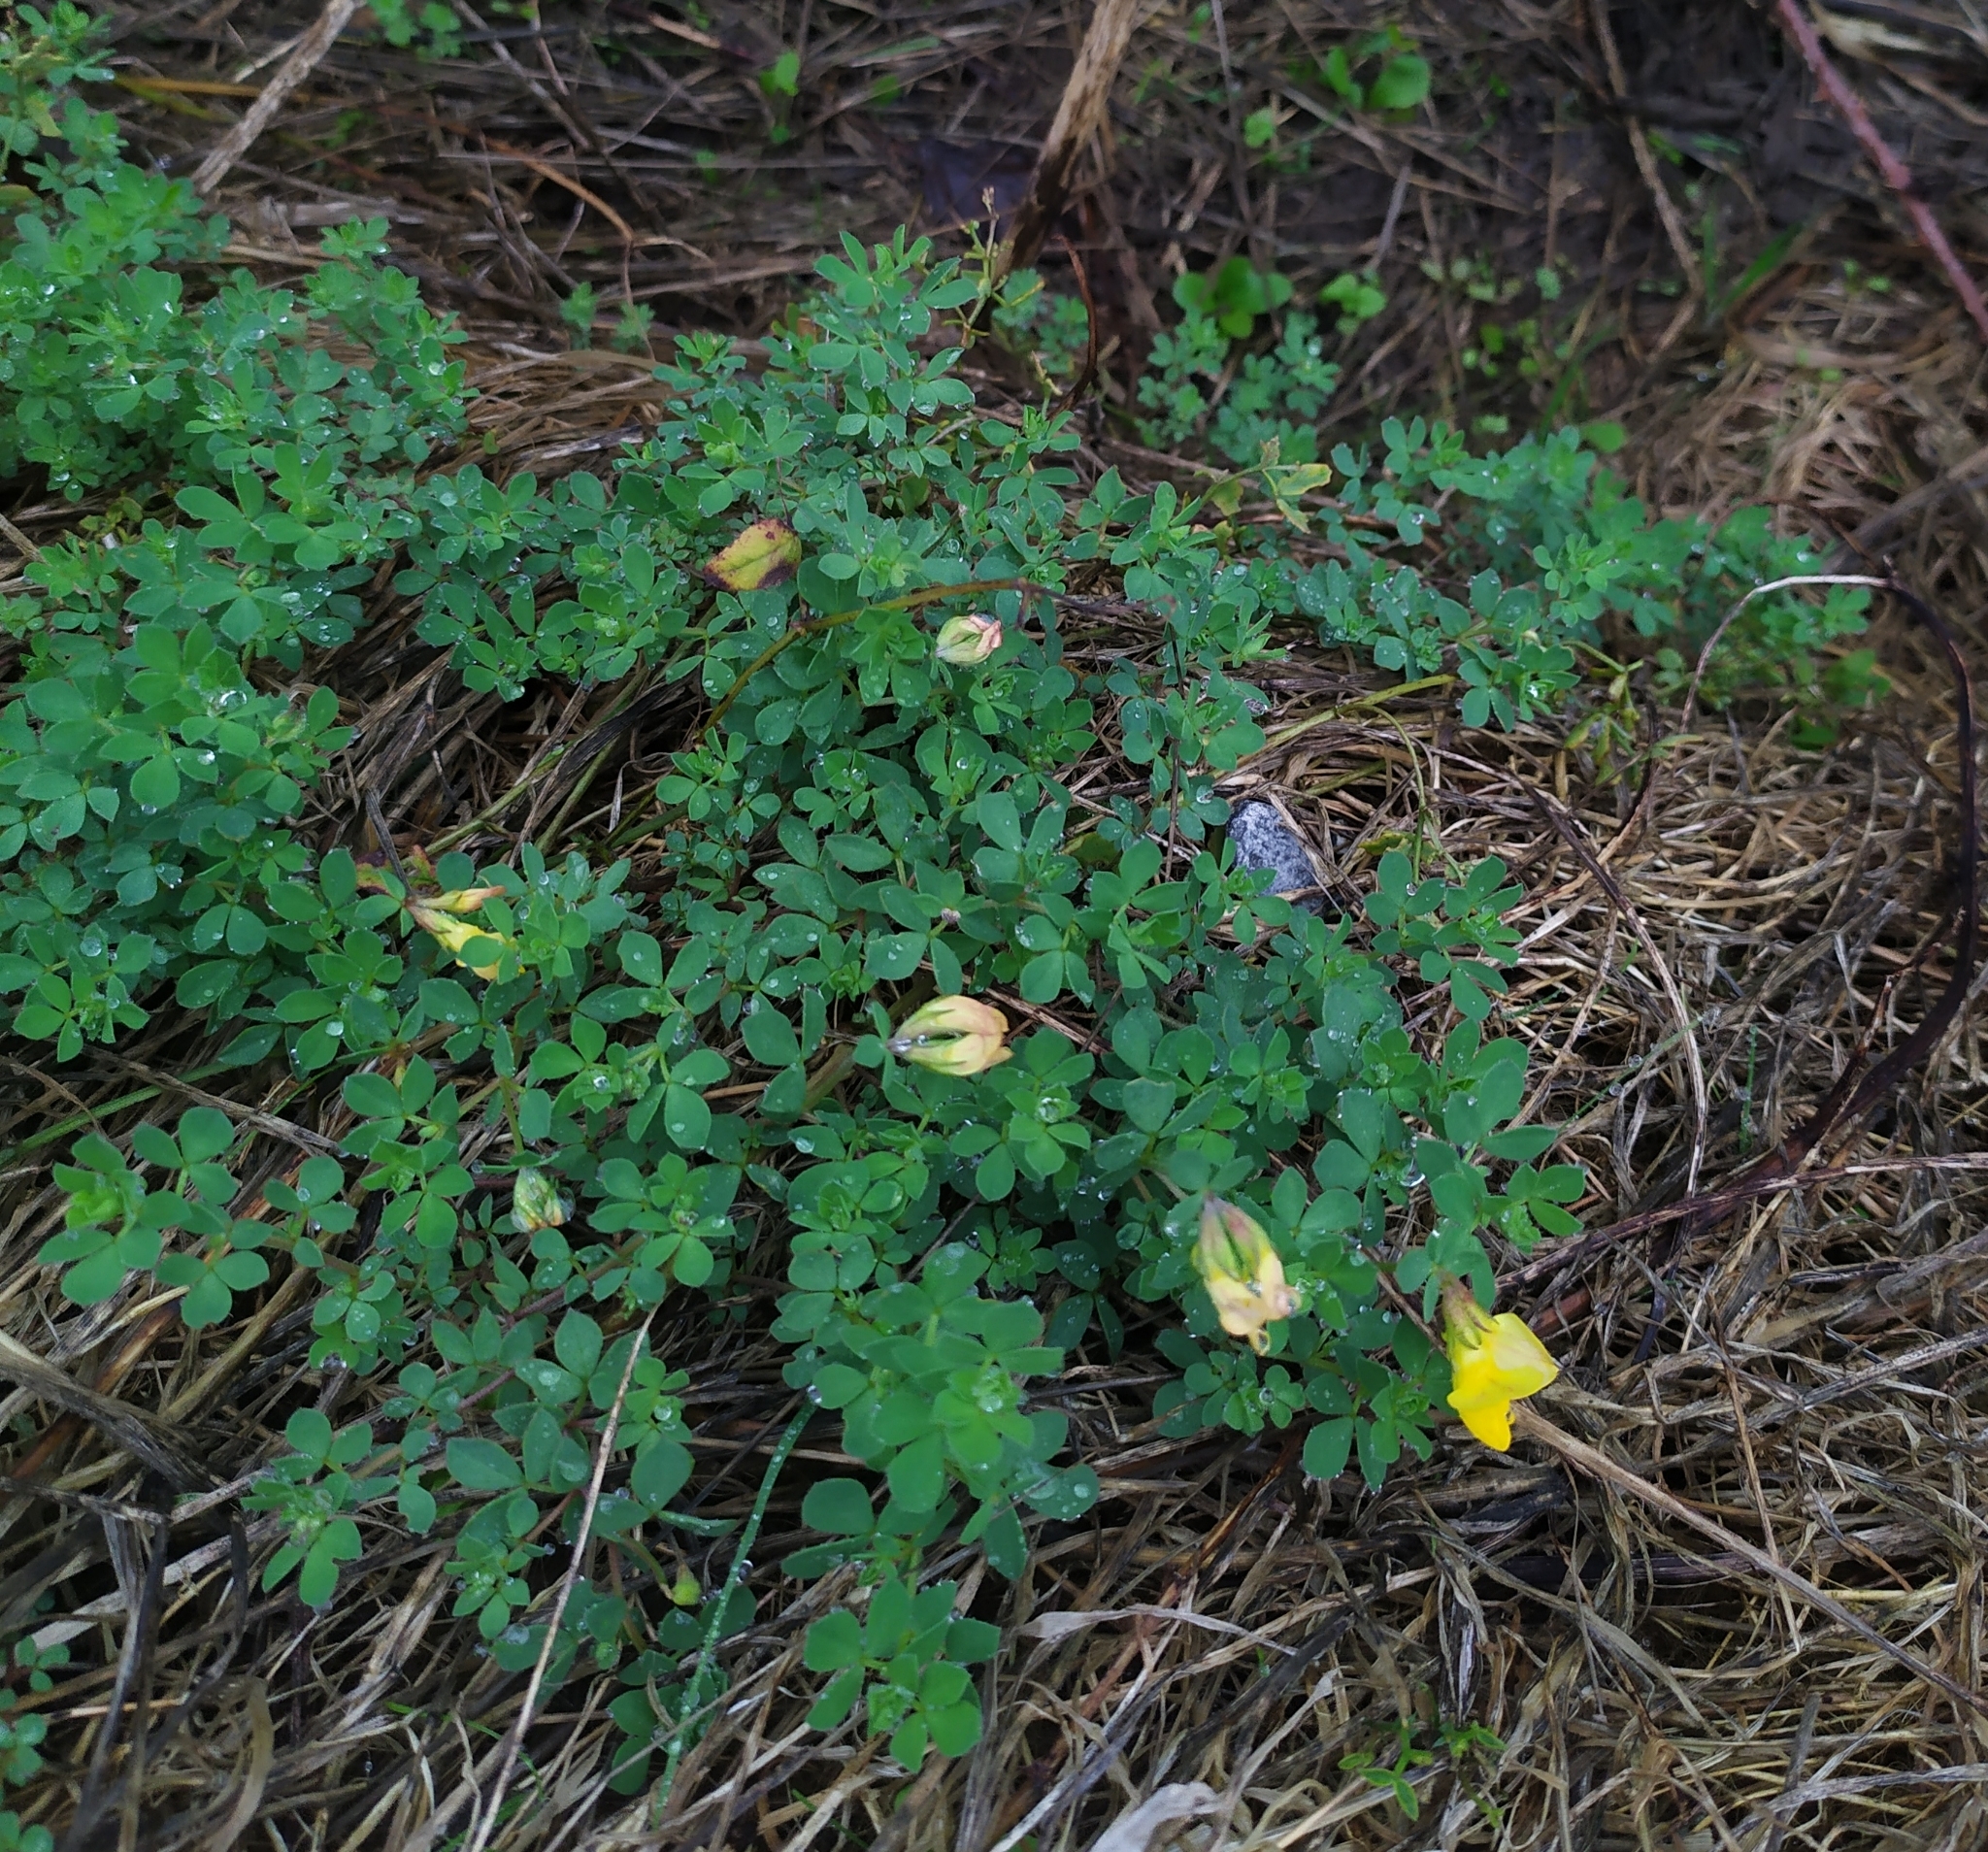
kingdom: Plantae
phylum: Tracheophyta
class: Magnoliopsida
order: Fabales
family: Fabaceae
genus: Lotus
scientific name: Lotus corniculatus
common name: Common bird's-foot-trefoil
